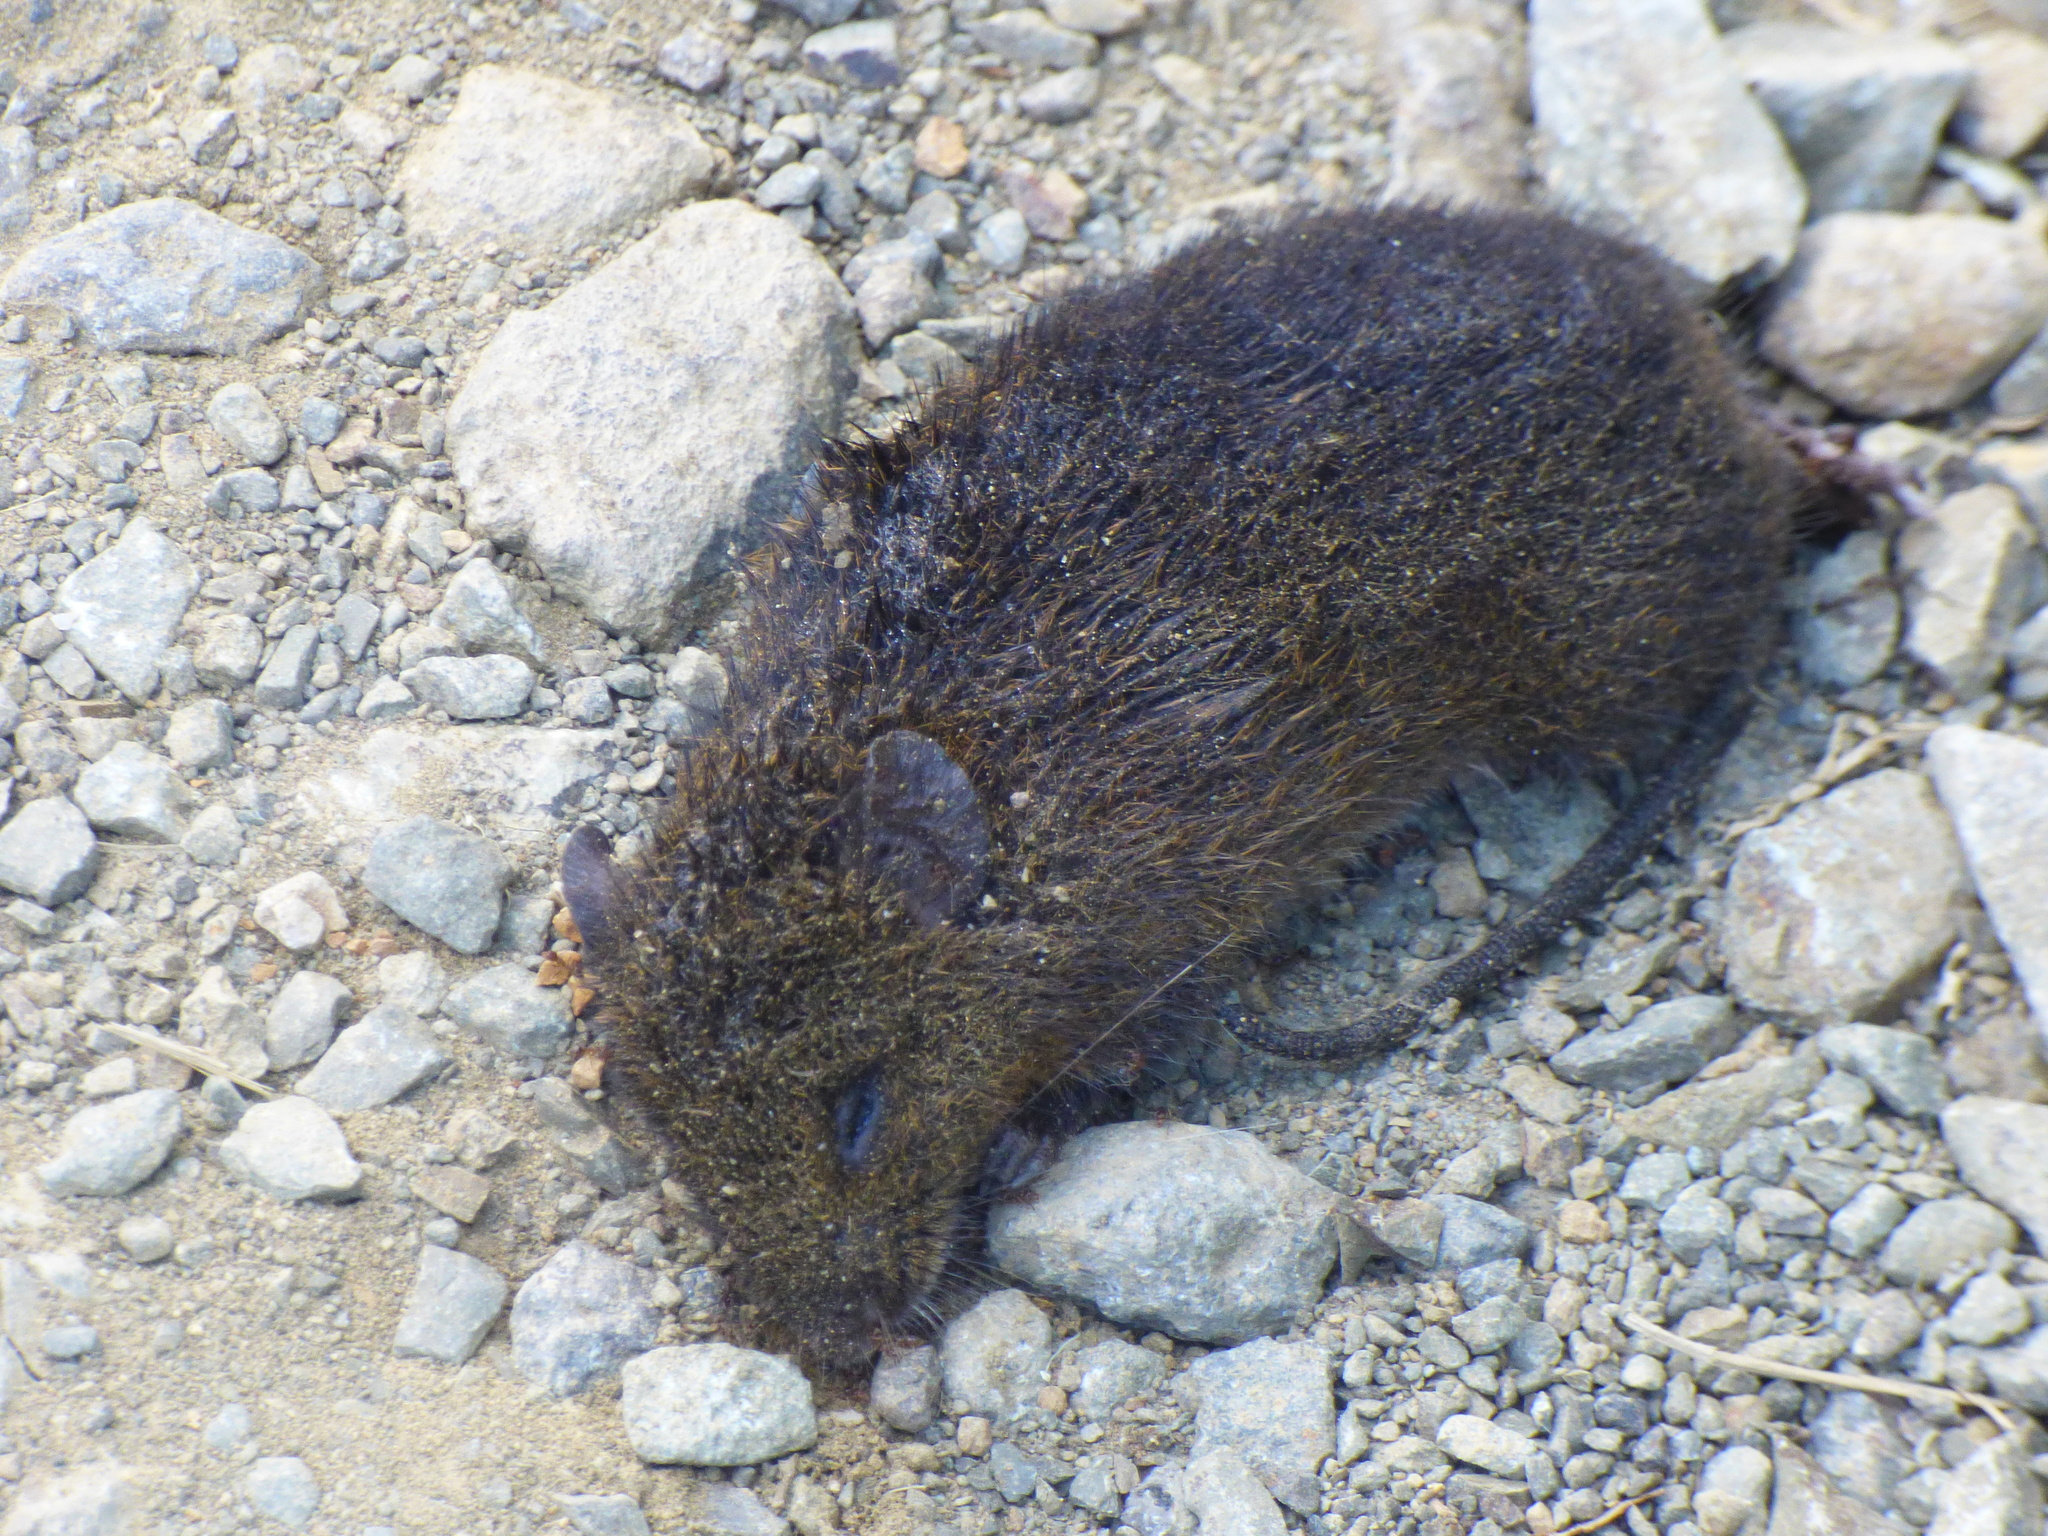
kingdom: Animalia
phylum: Chordata
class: Mammalia
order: Rodentia
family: Muridae
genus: Rattus
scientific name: Rattus norvegicus
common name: Brown rat
